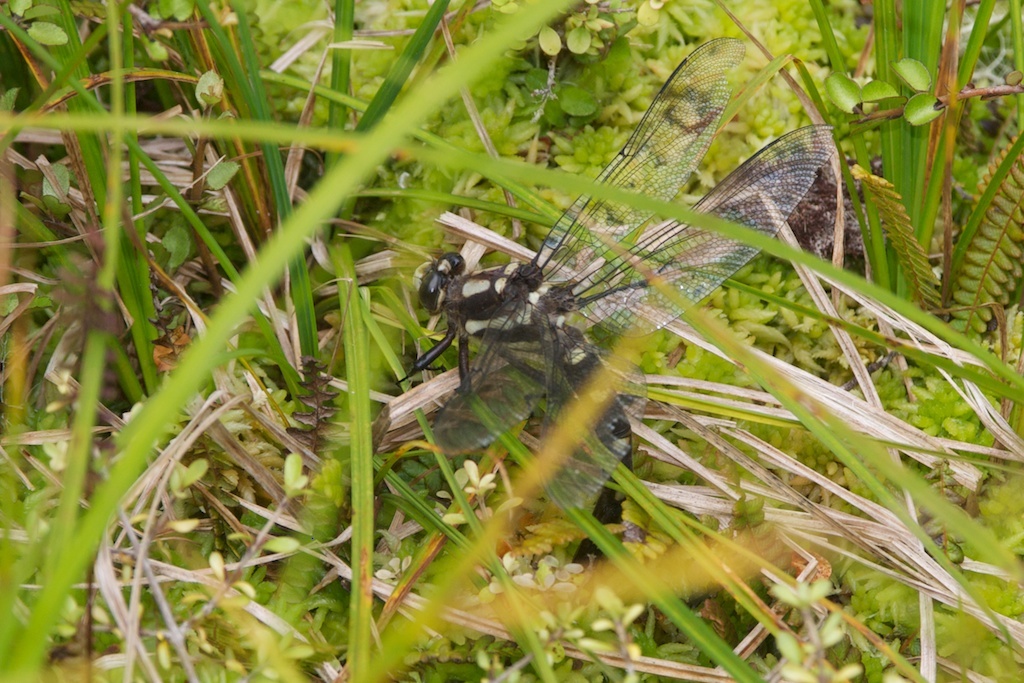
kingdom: Animalia
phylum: Arthropoda
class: Insecta
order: Odonata
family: Petaluridae
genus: Uropetala
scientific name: Uropetala chiltoni
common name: Mountain giant dragonfly
